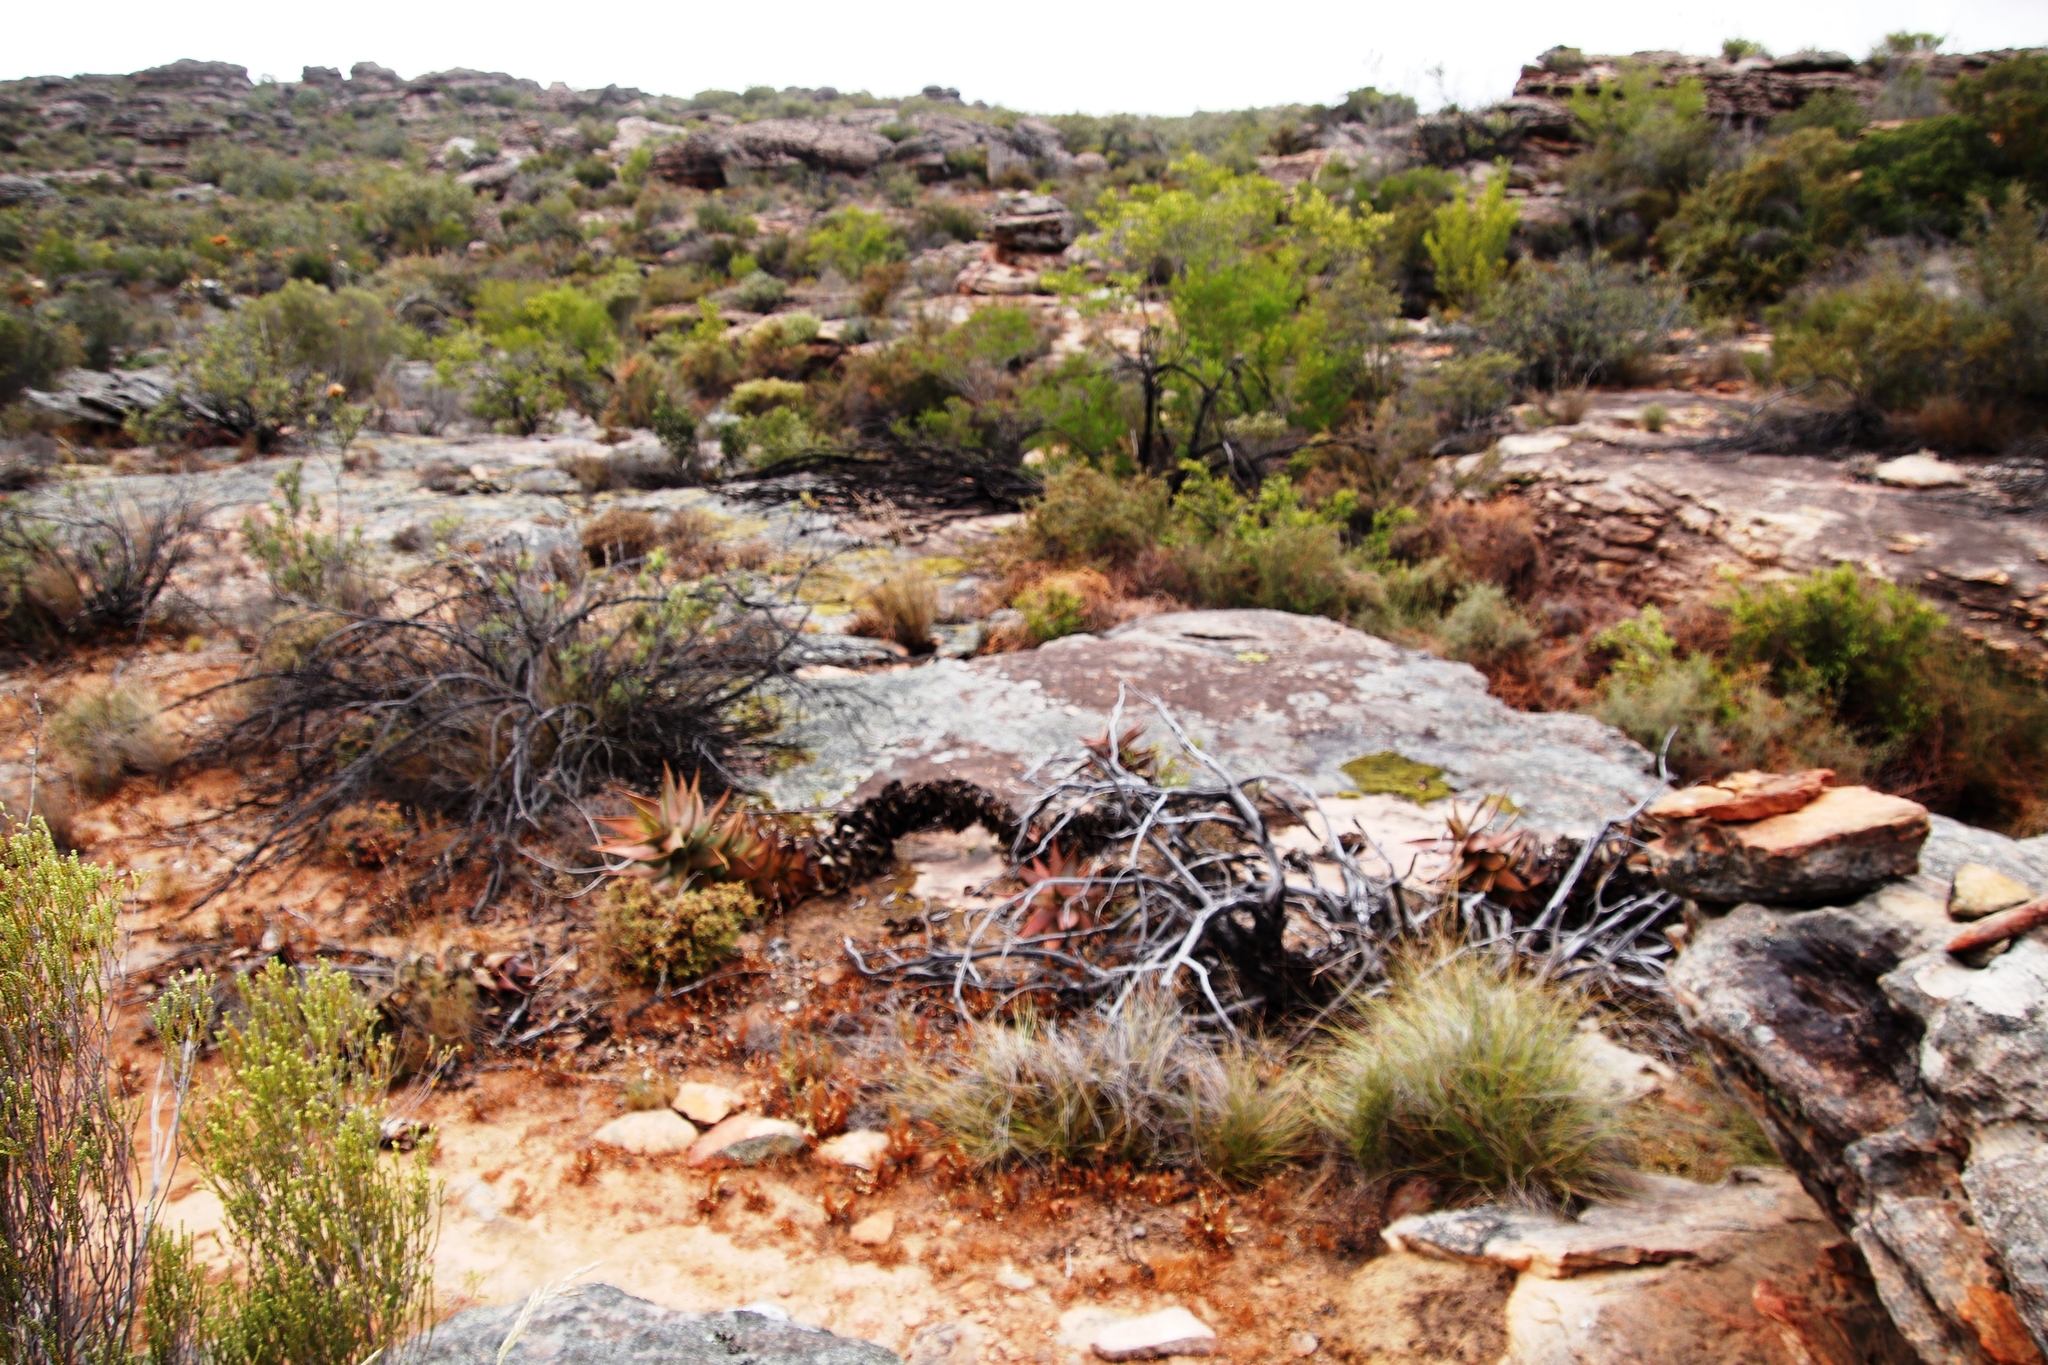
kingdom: Plantae
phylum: Tracheophyta
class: Liliopsida
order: Asparagales
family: Asphodelaceae
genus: Aloe
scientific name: Aloe perfoliata
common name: Mitra aloe
